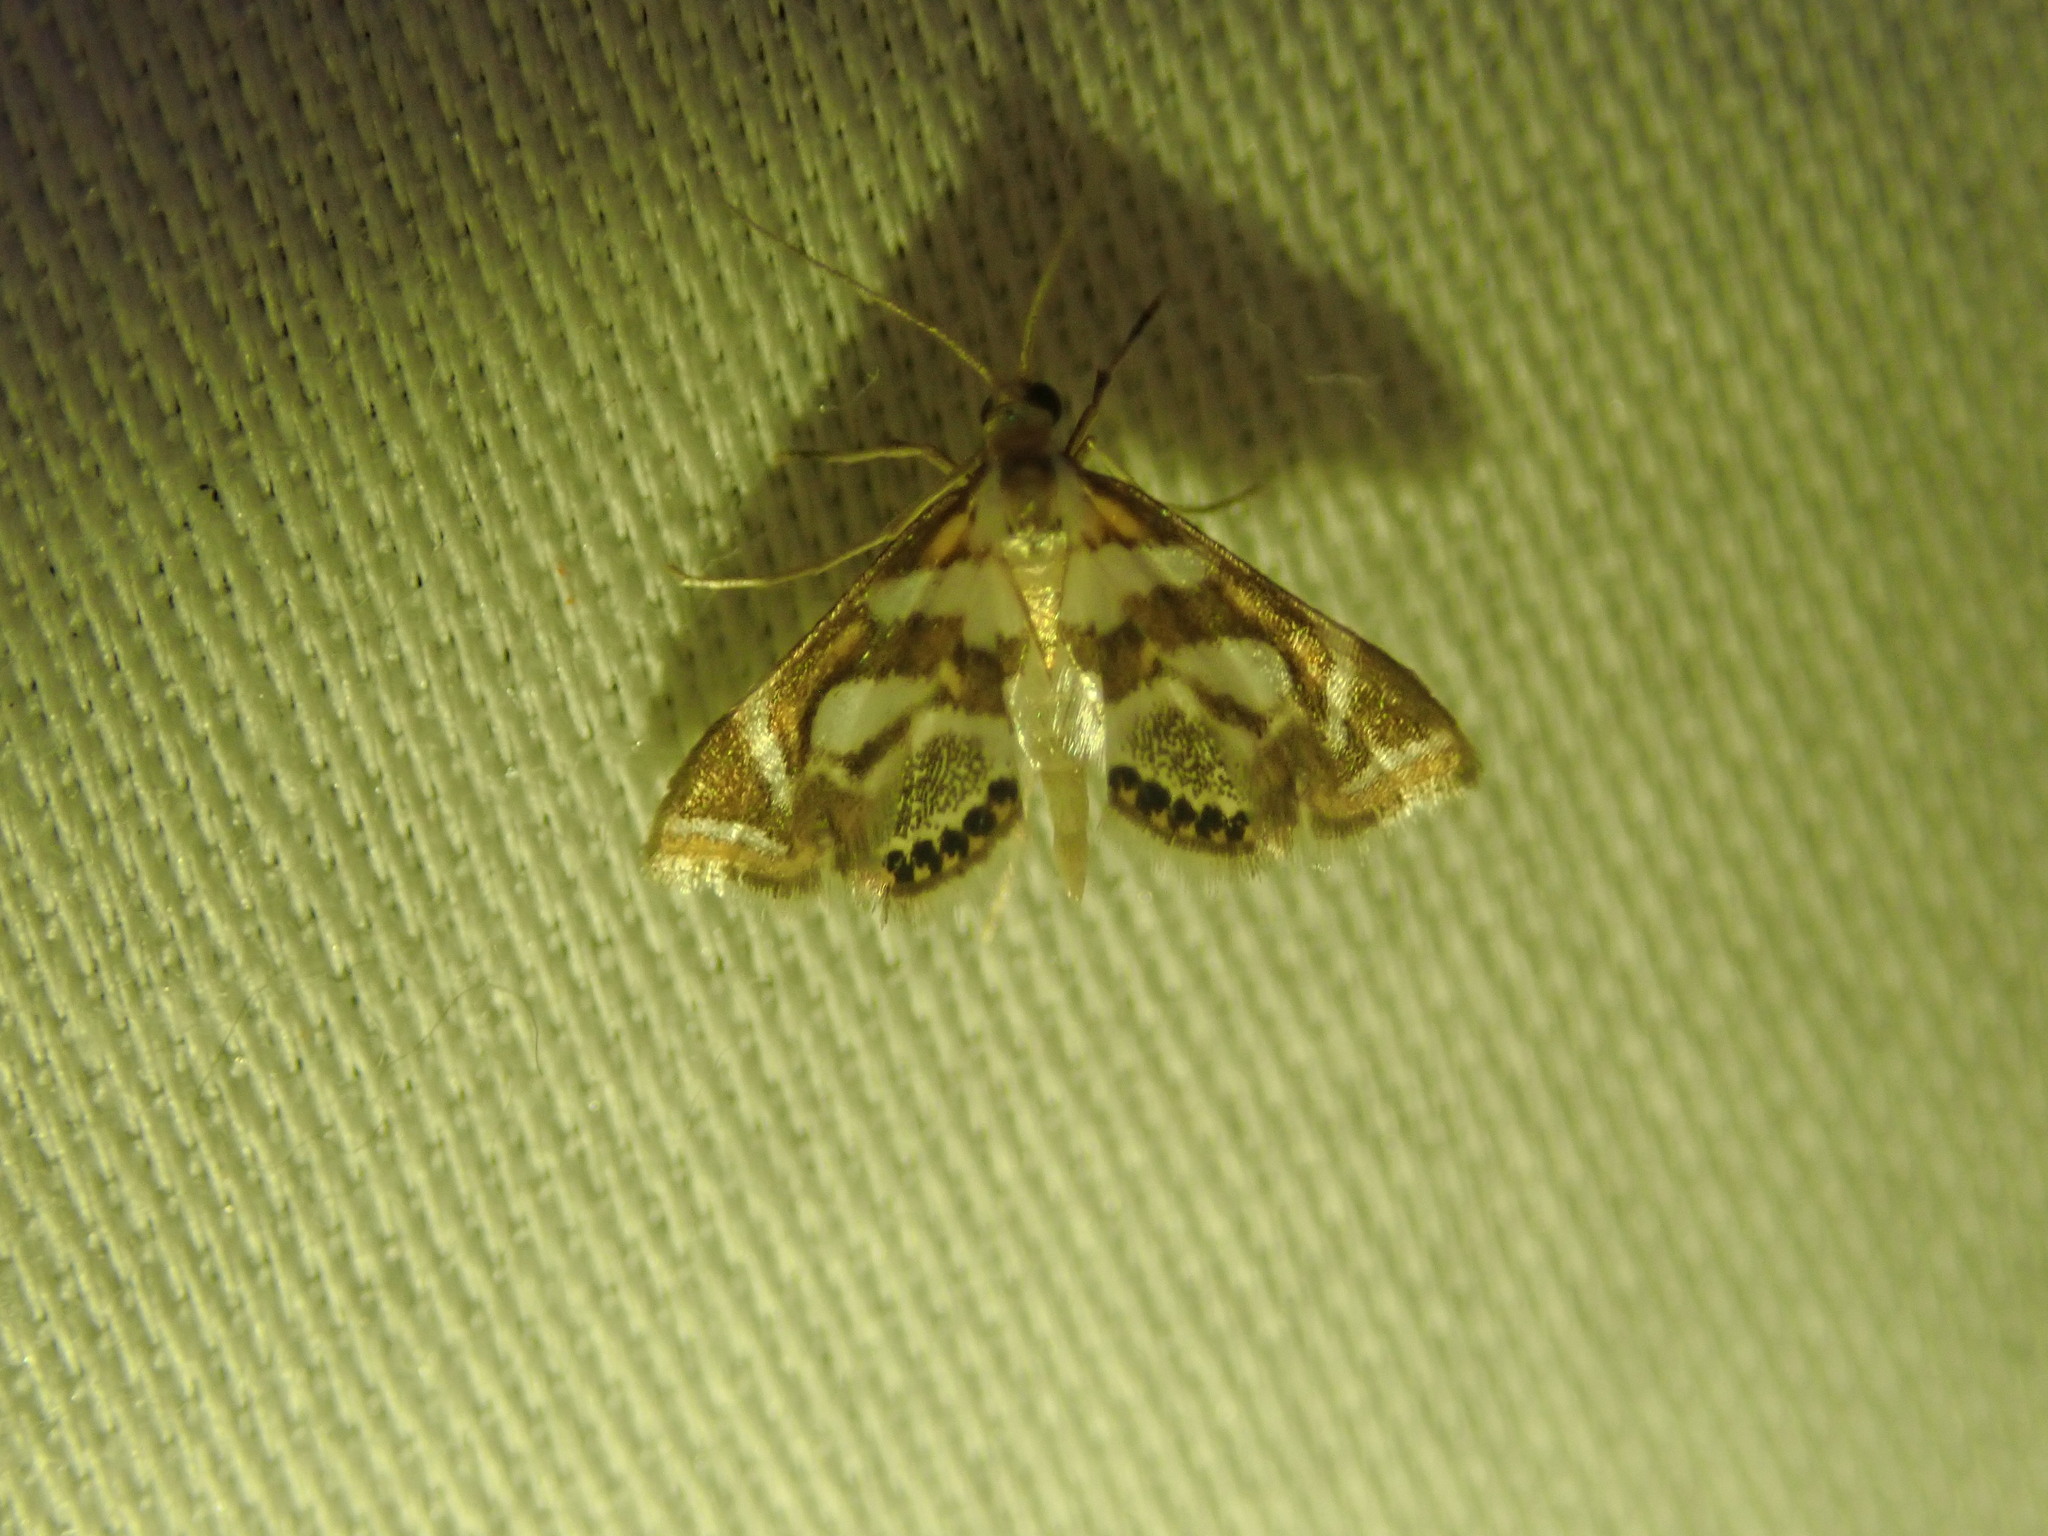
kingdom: Animalia
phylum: Arthropoda
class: Insecta
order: Lepidoptera
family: Crambidae
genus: Chrysendeton
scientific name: Chrysendeton medicinalis
